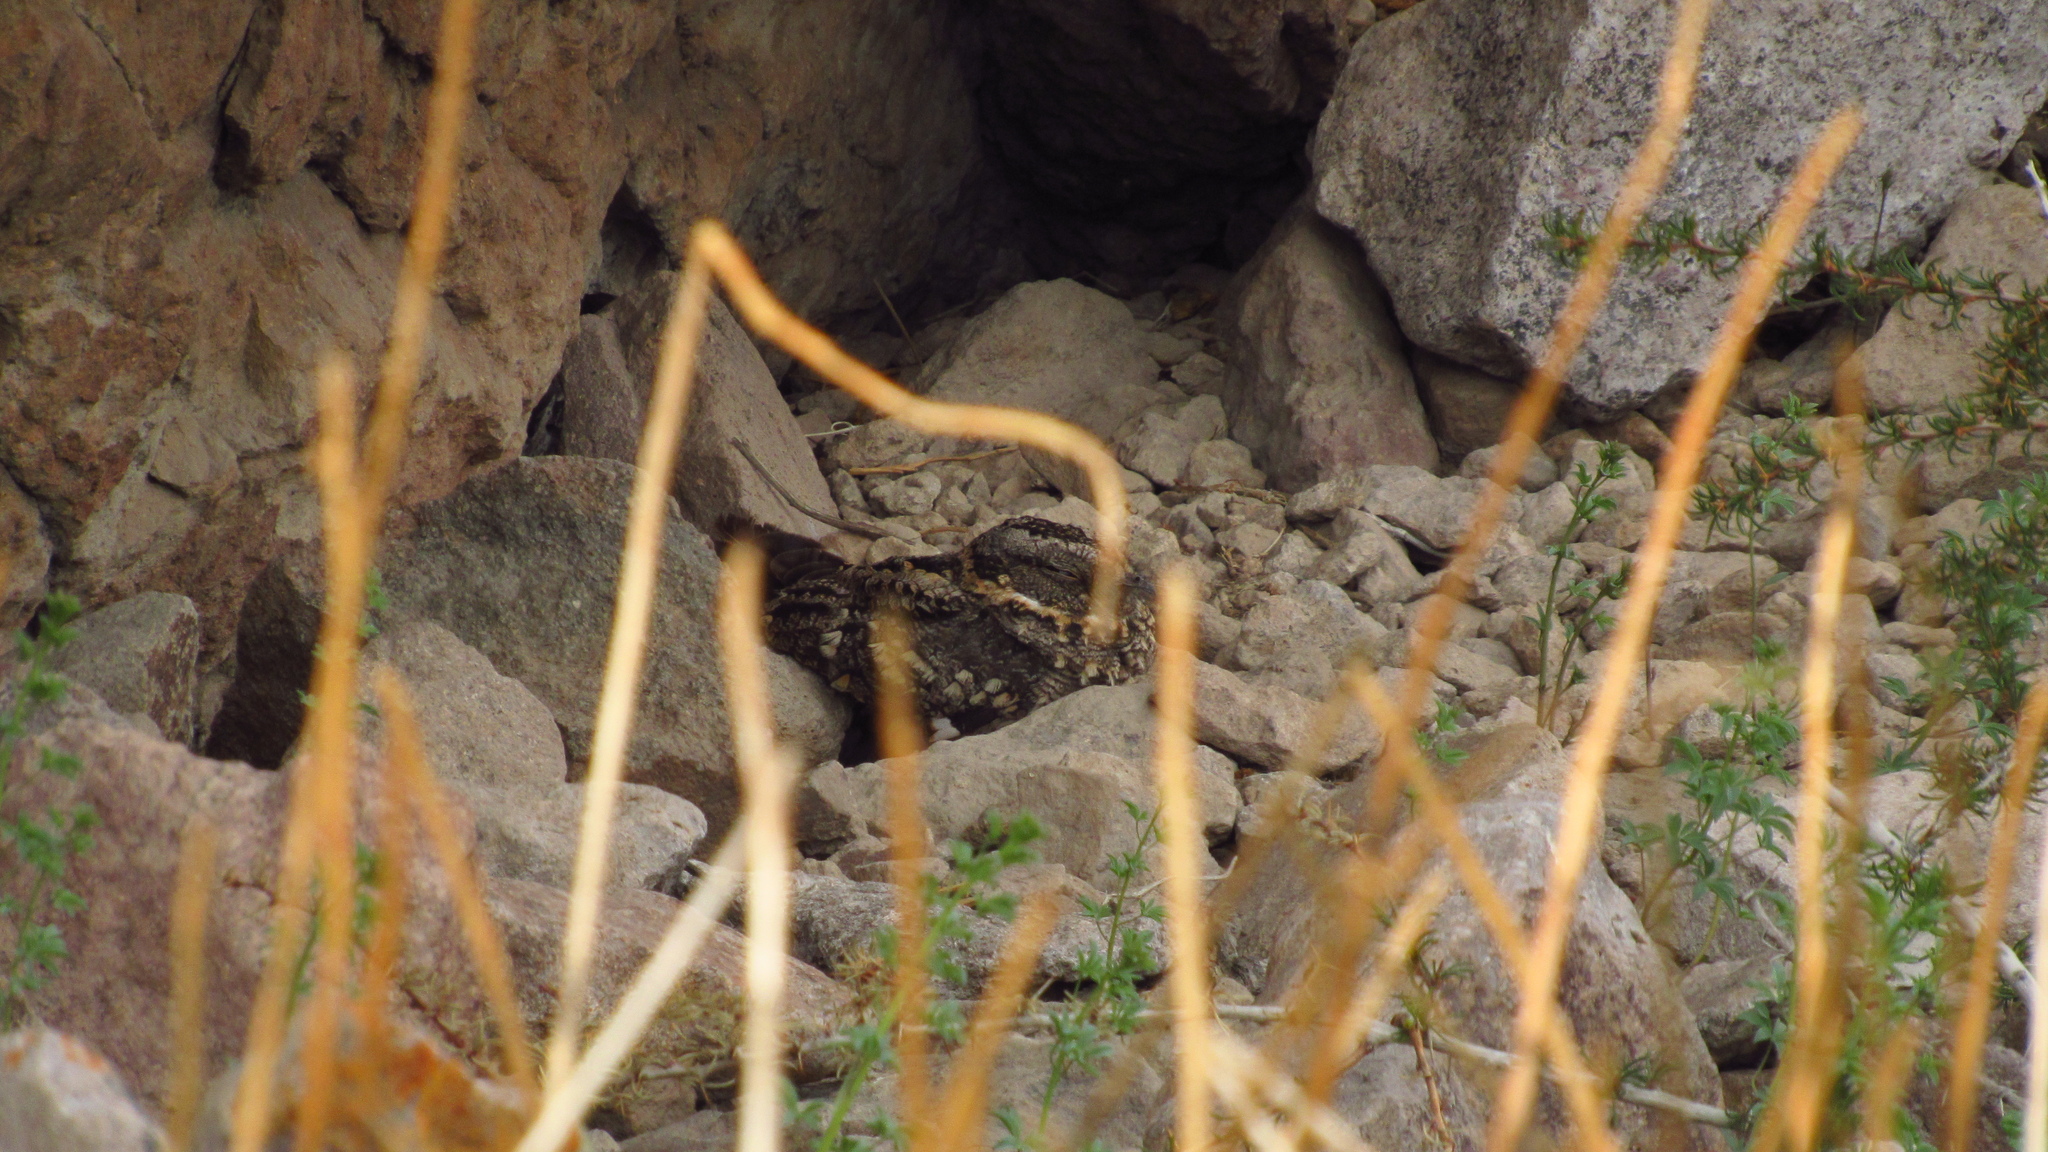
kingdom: Animalia
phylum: Chordata
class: Aves
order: Caprimulgiformes
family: Caprimulgidae
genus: Systellura
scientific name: Systellura longirostris
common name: Band-winged nightjar
